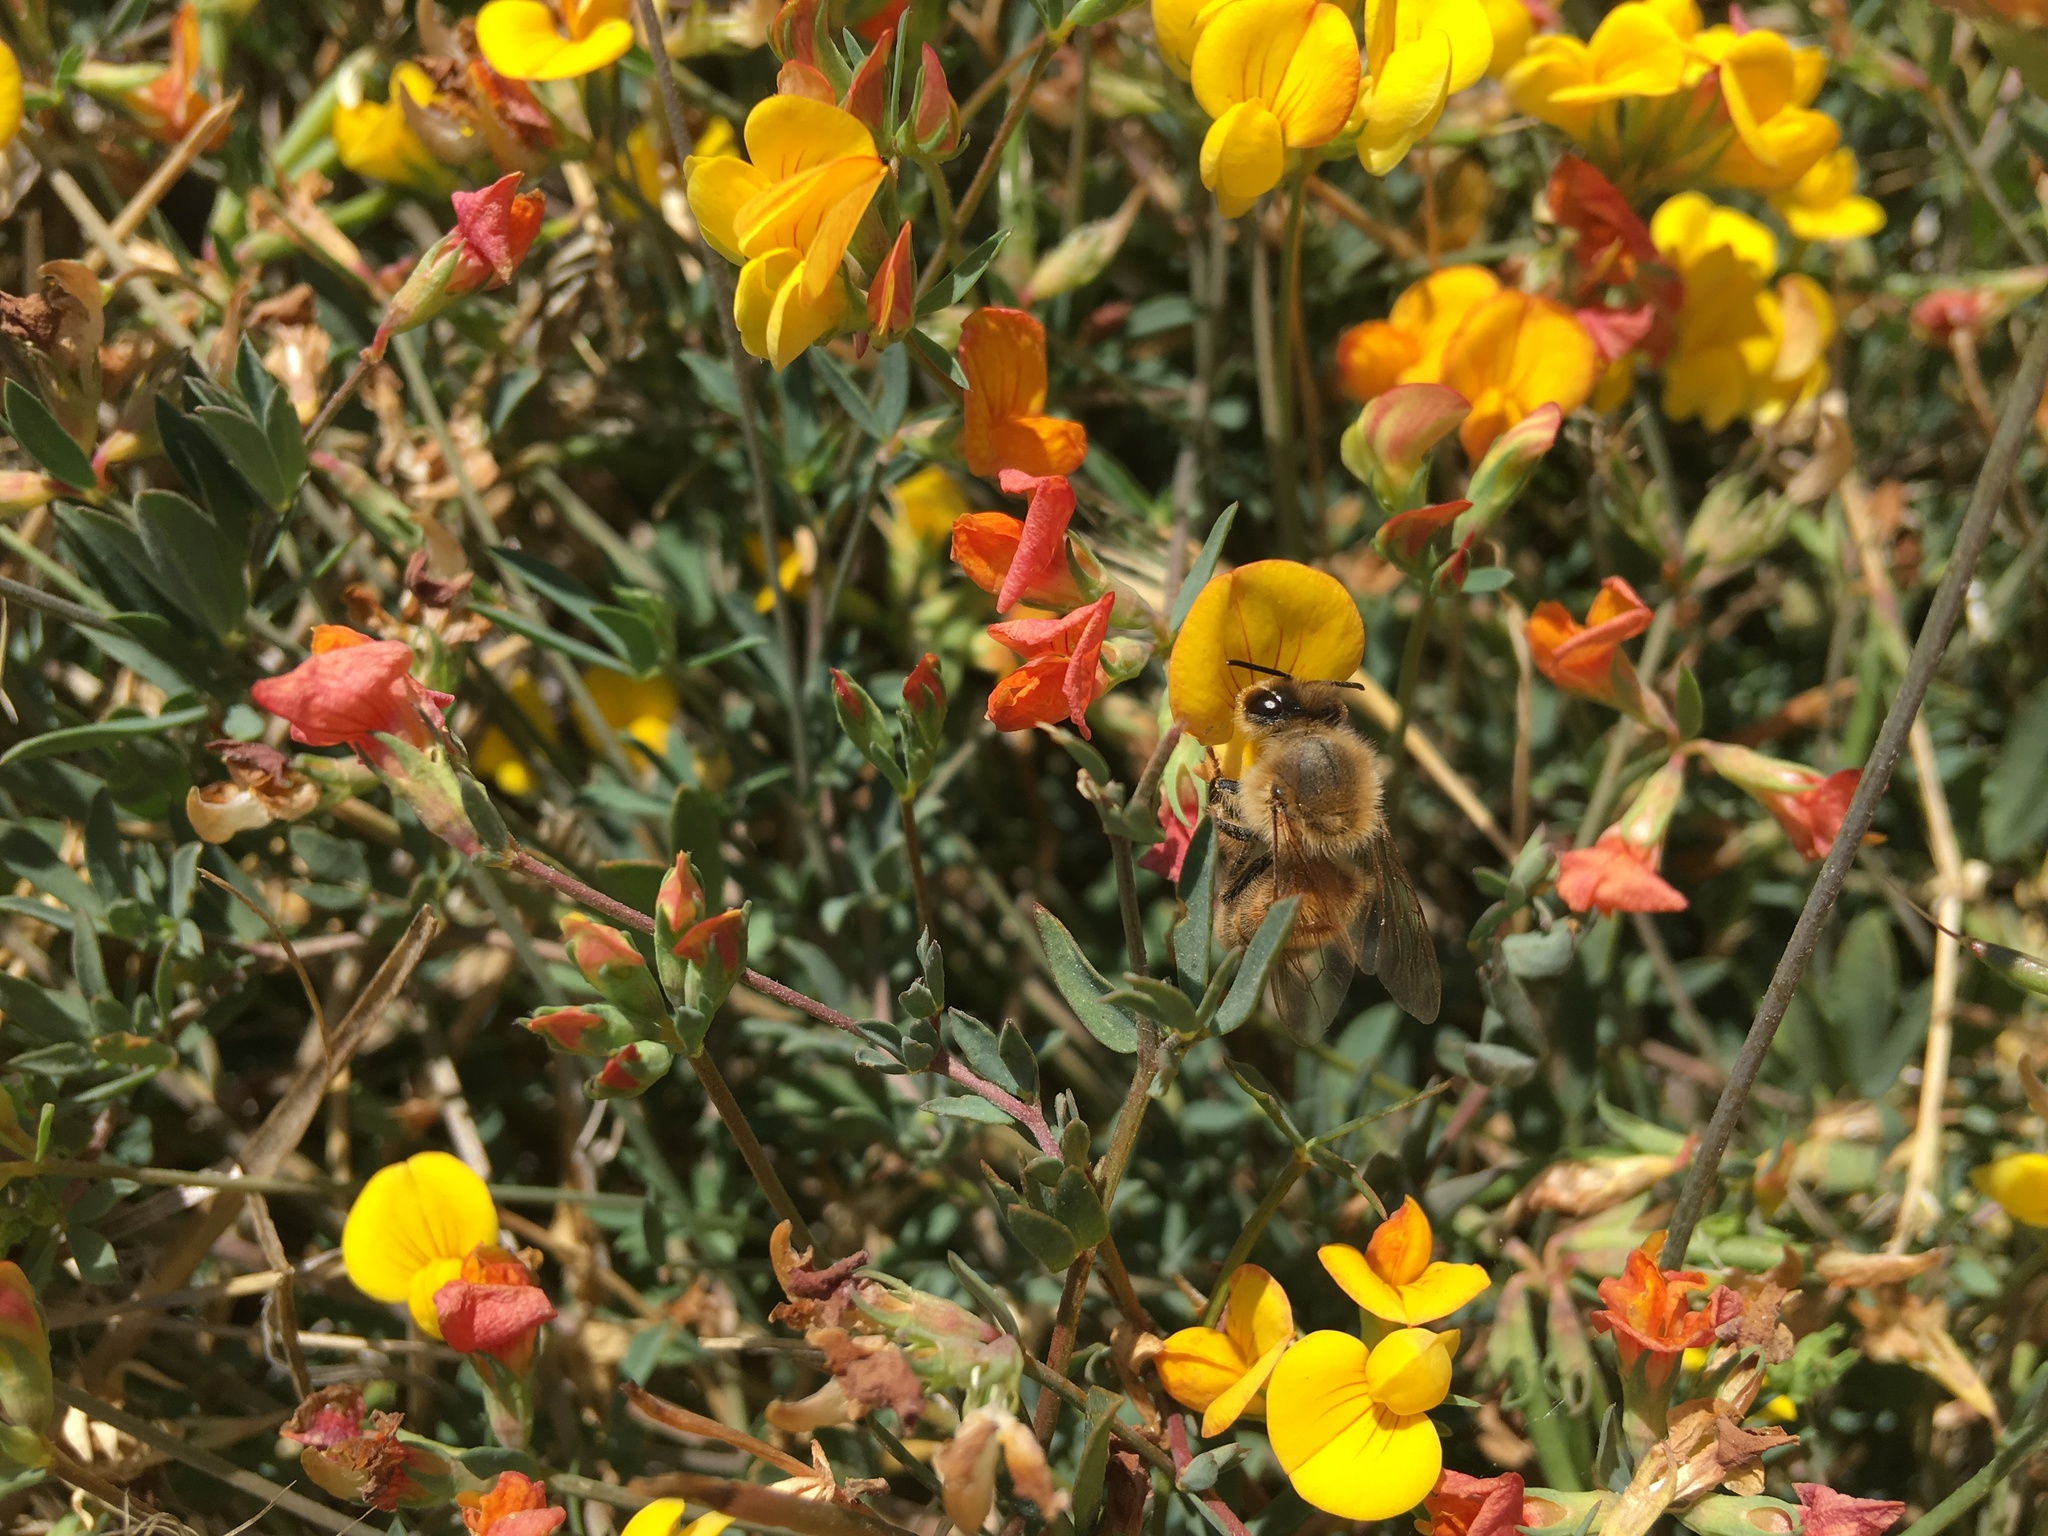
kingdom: Animalia
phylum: Arthropoda
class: Insecta
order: Hymenoptera
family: Apidae
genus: Apis
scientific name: Apis mellifera
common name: Honey bee
